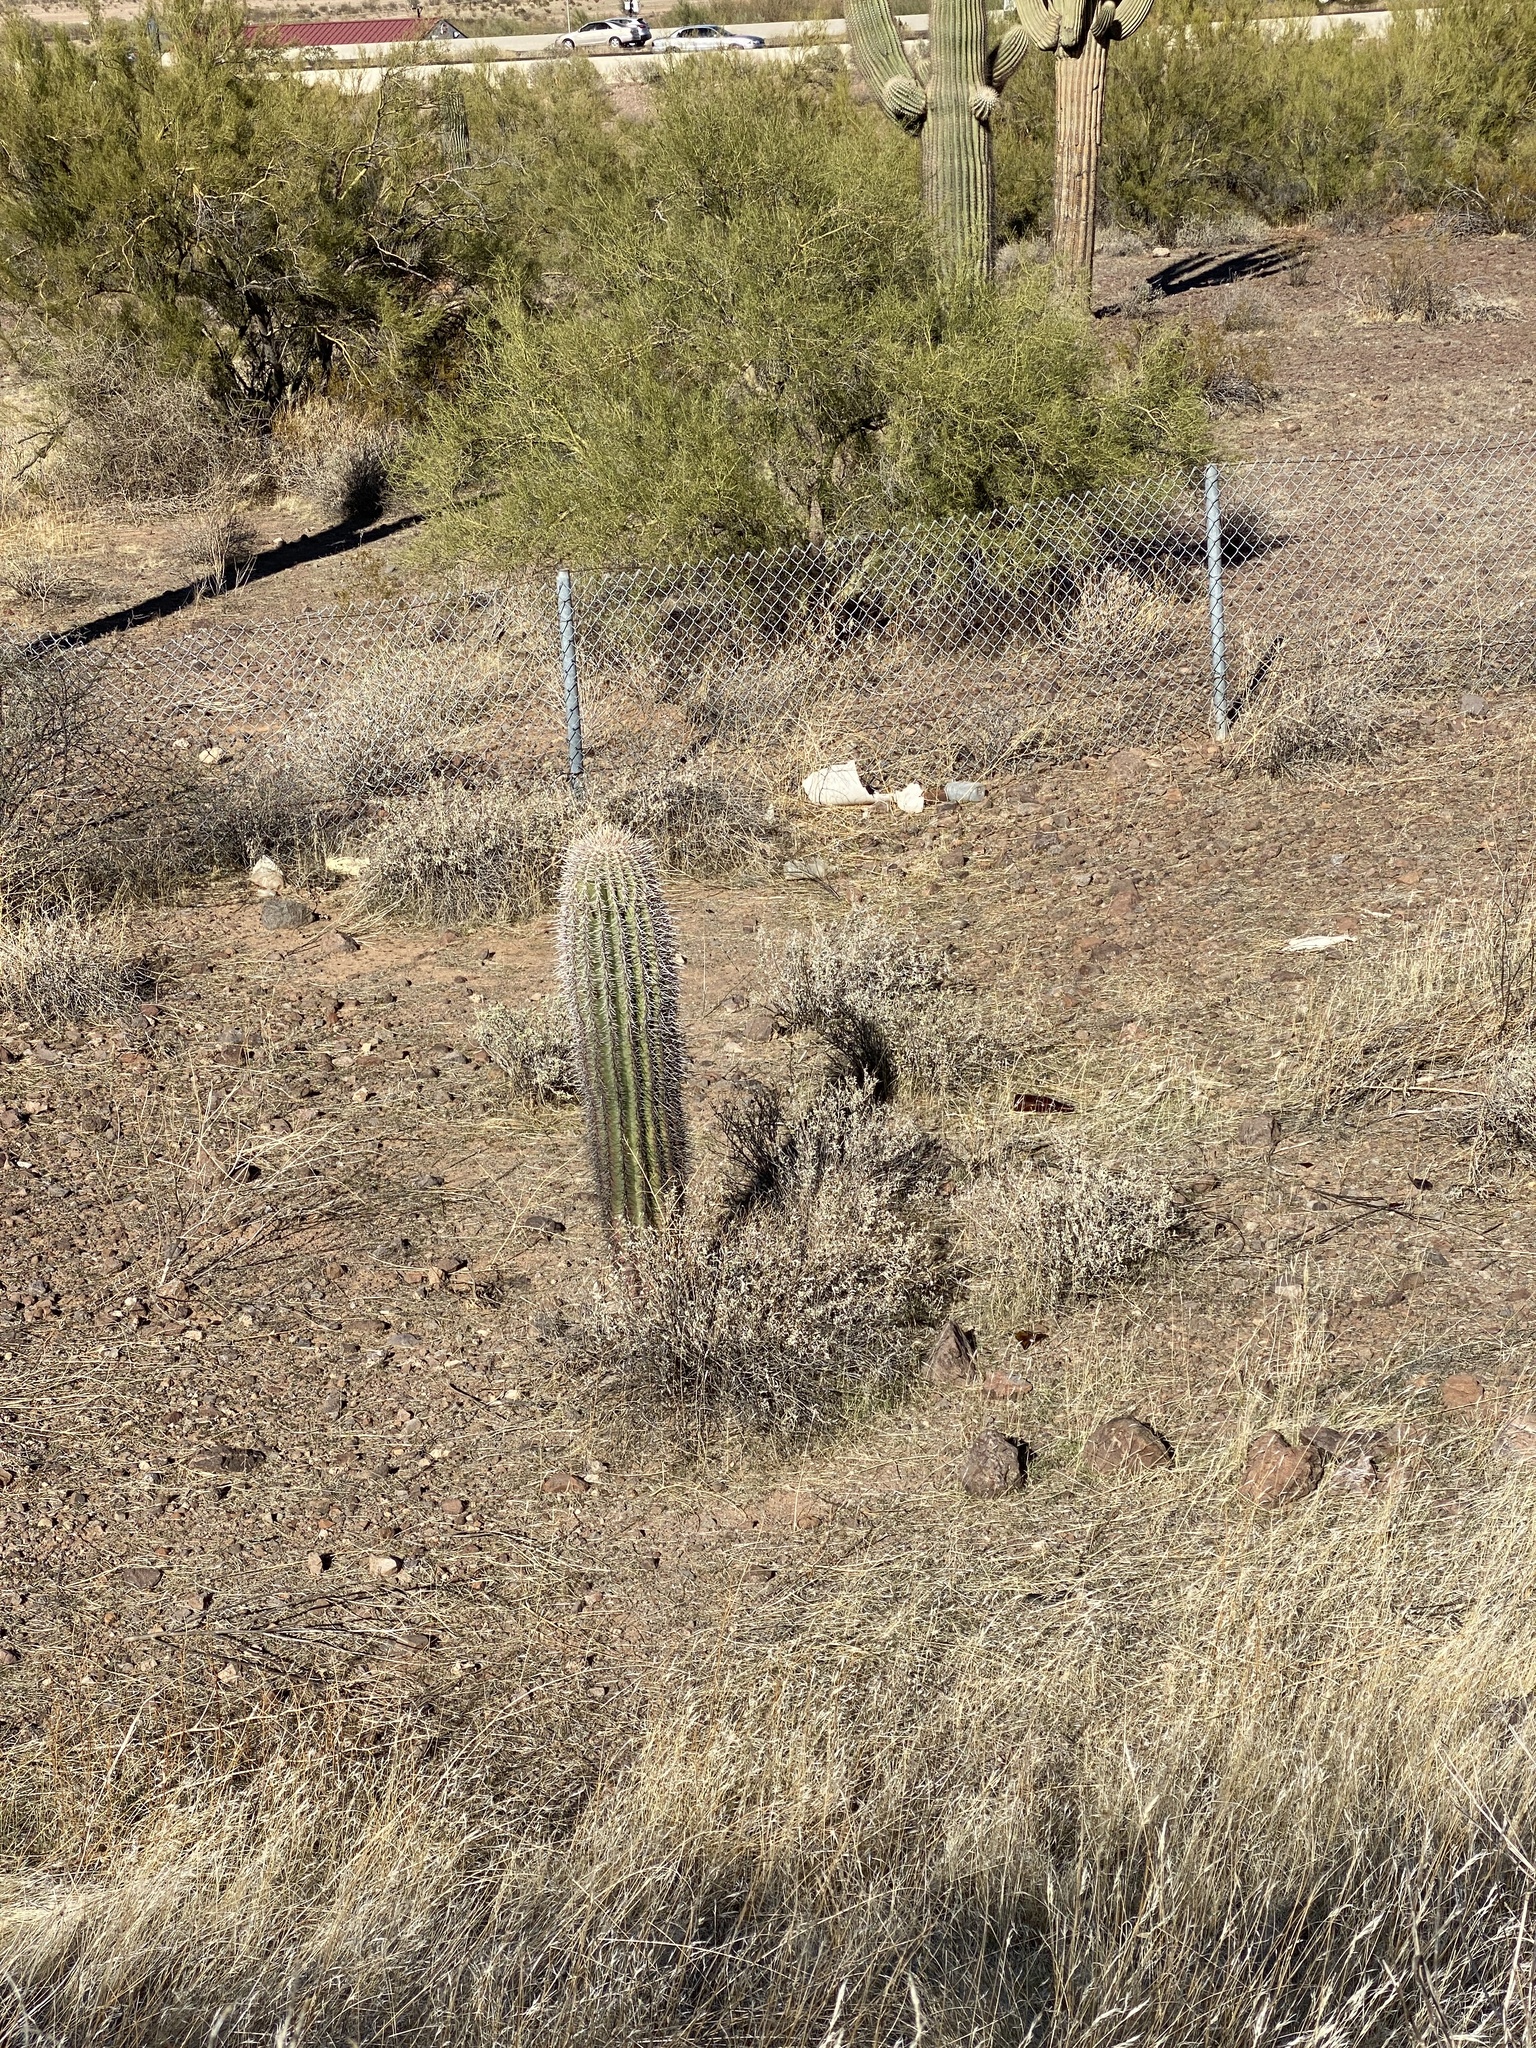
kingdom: Plantae
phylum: Tracheophyta
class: Magnoliopsida
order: Caryophyllales
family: Cactaceae
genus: Carnegiea
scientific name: Carnegiea gigantea
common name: Saguaro
